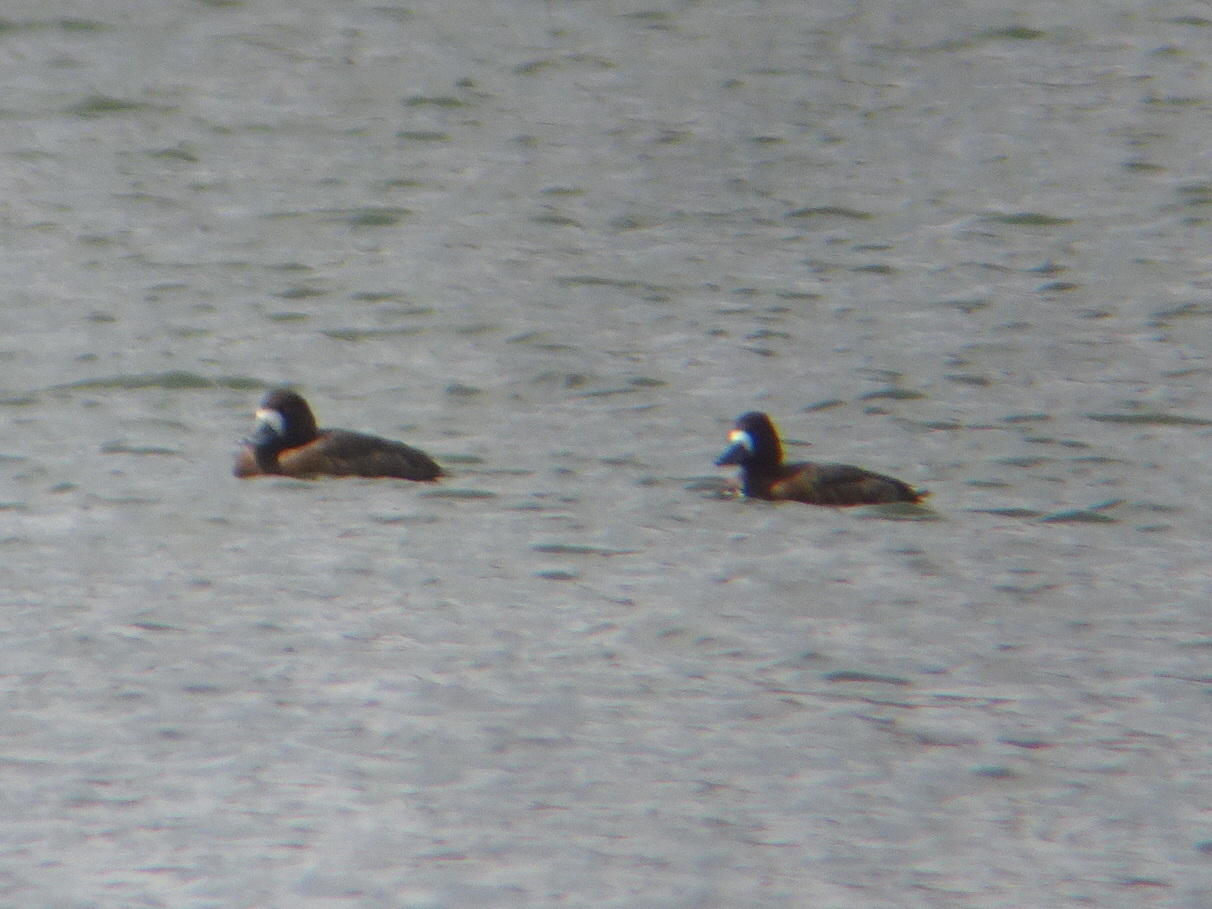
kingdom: Animalia
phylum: Chordata
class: Aves
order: Anseriformes
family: Anatidae
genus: Aythya
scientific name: Aythya marila
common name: Greater scaup
